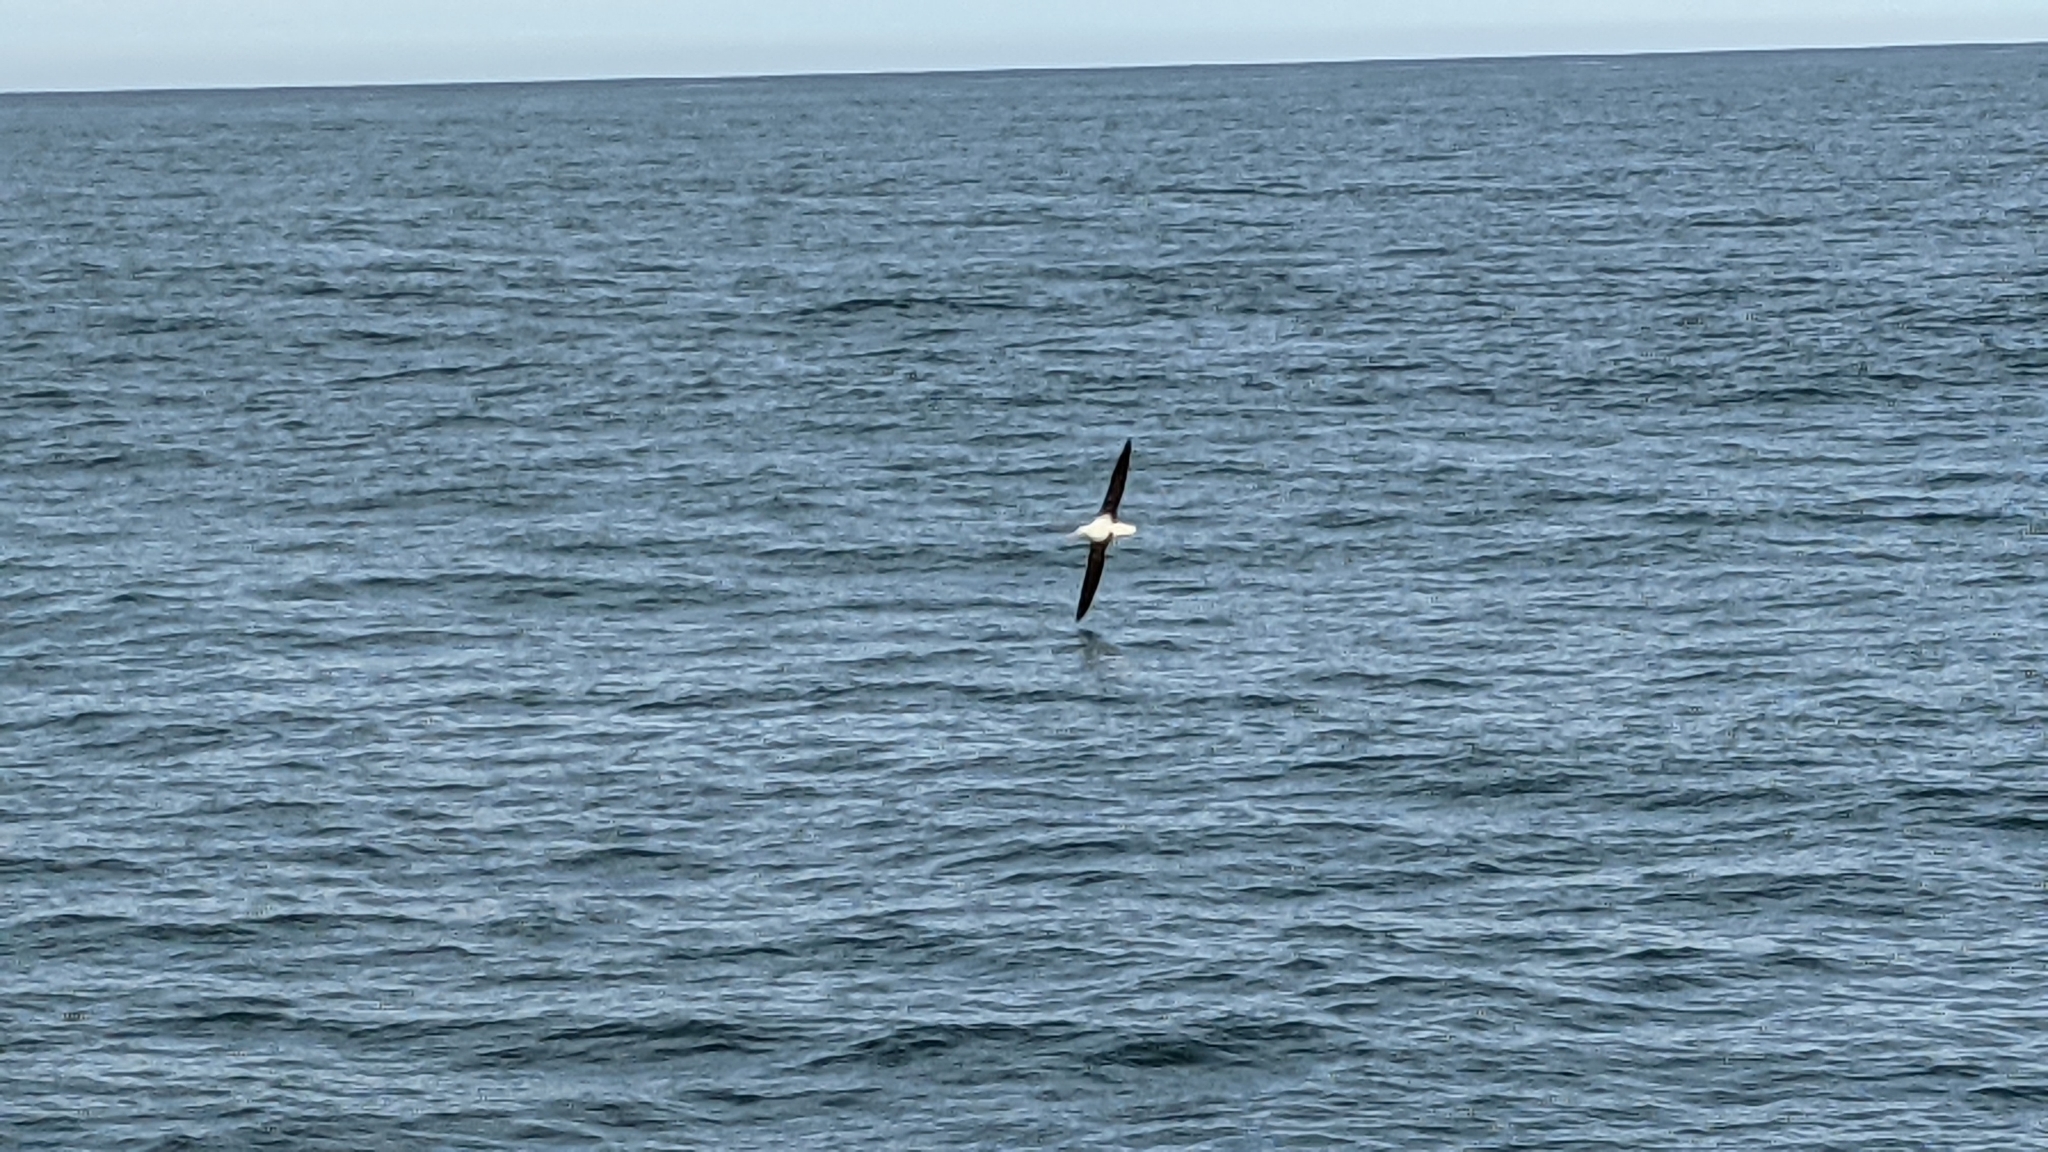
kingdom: Animalia
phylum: Chordata
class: Aves
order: Procellariiformes
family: Diomedeidae
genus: Diomedea
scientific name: Diomedea sanfordi
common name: Northern royal albatross
